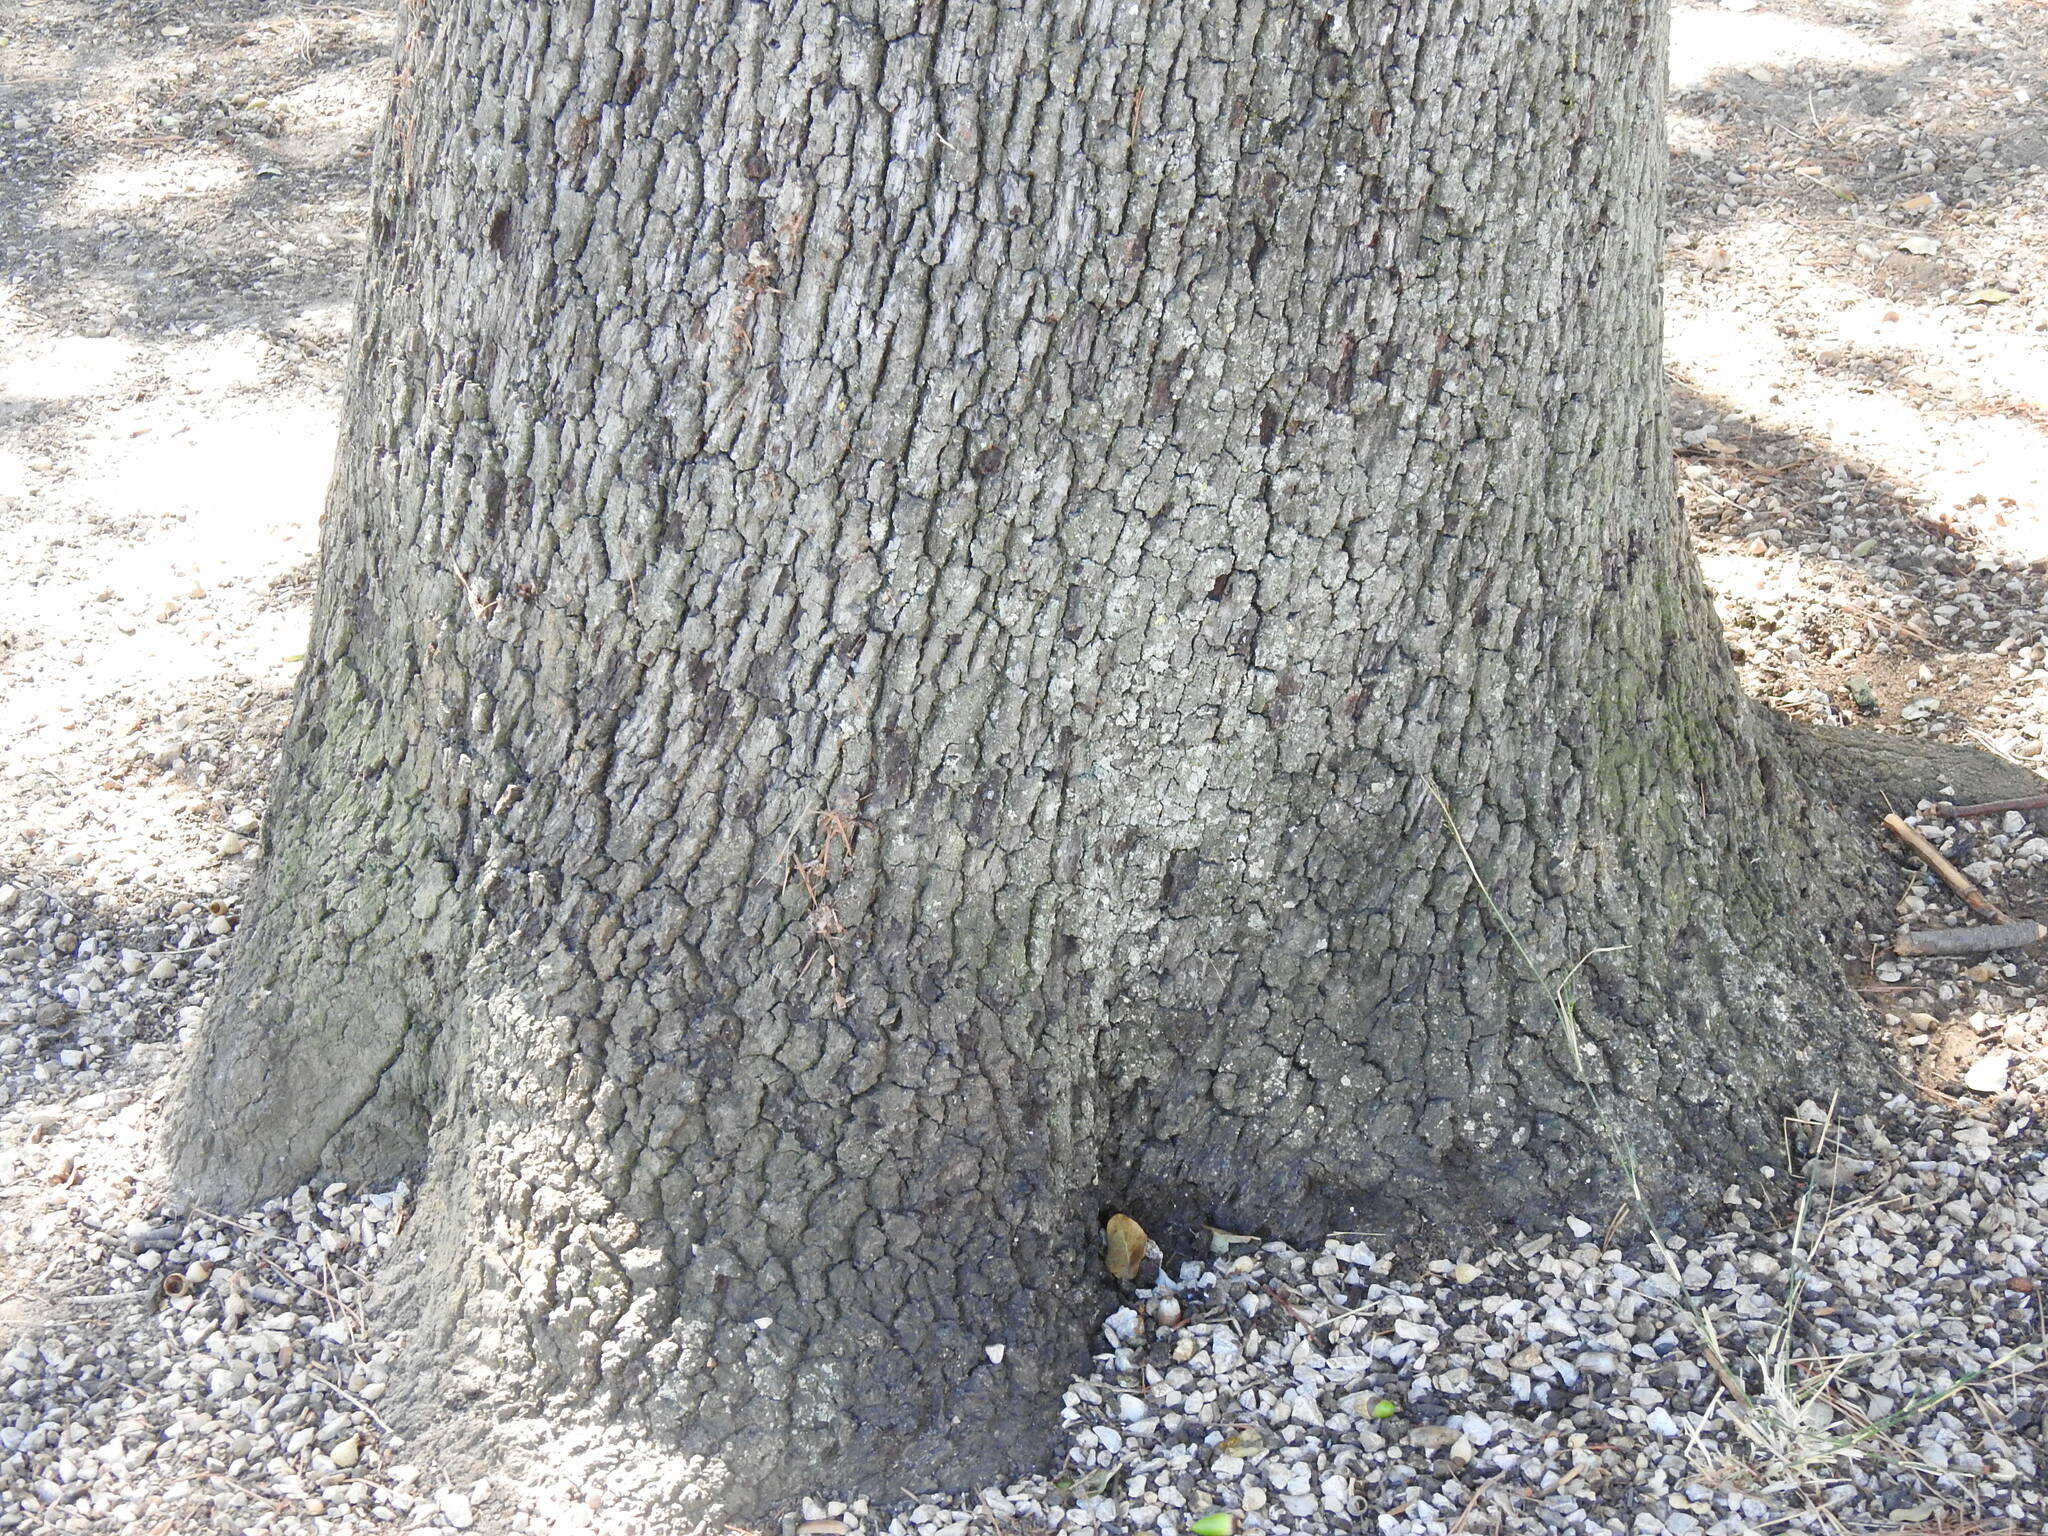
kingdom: Plantae
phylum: Tracheophyta
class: Magnoliopsida
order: Fagales
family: Fagaceae
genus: Quercus
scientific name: Quercus rotundifolia
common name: Holm oak
